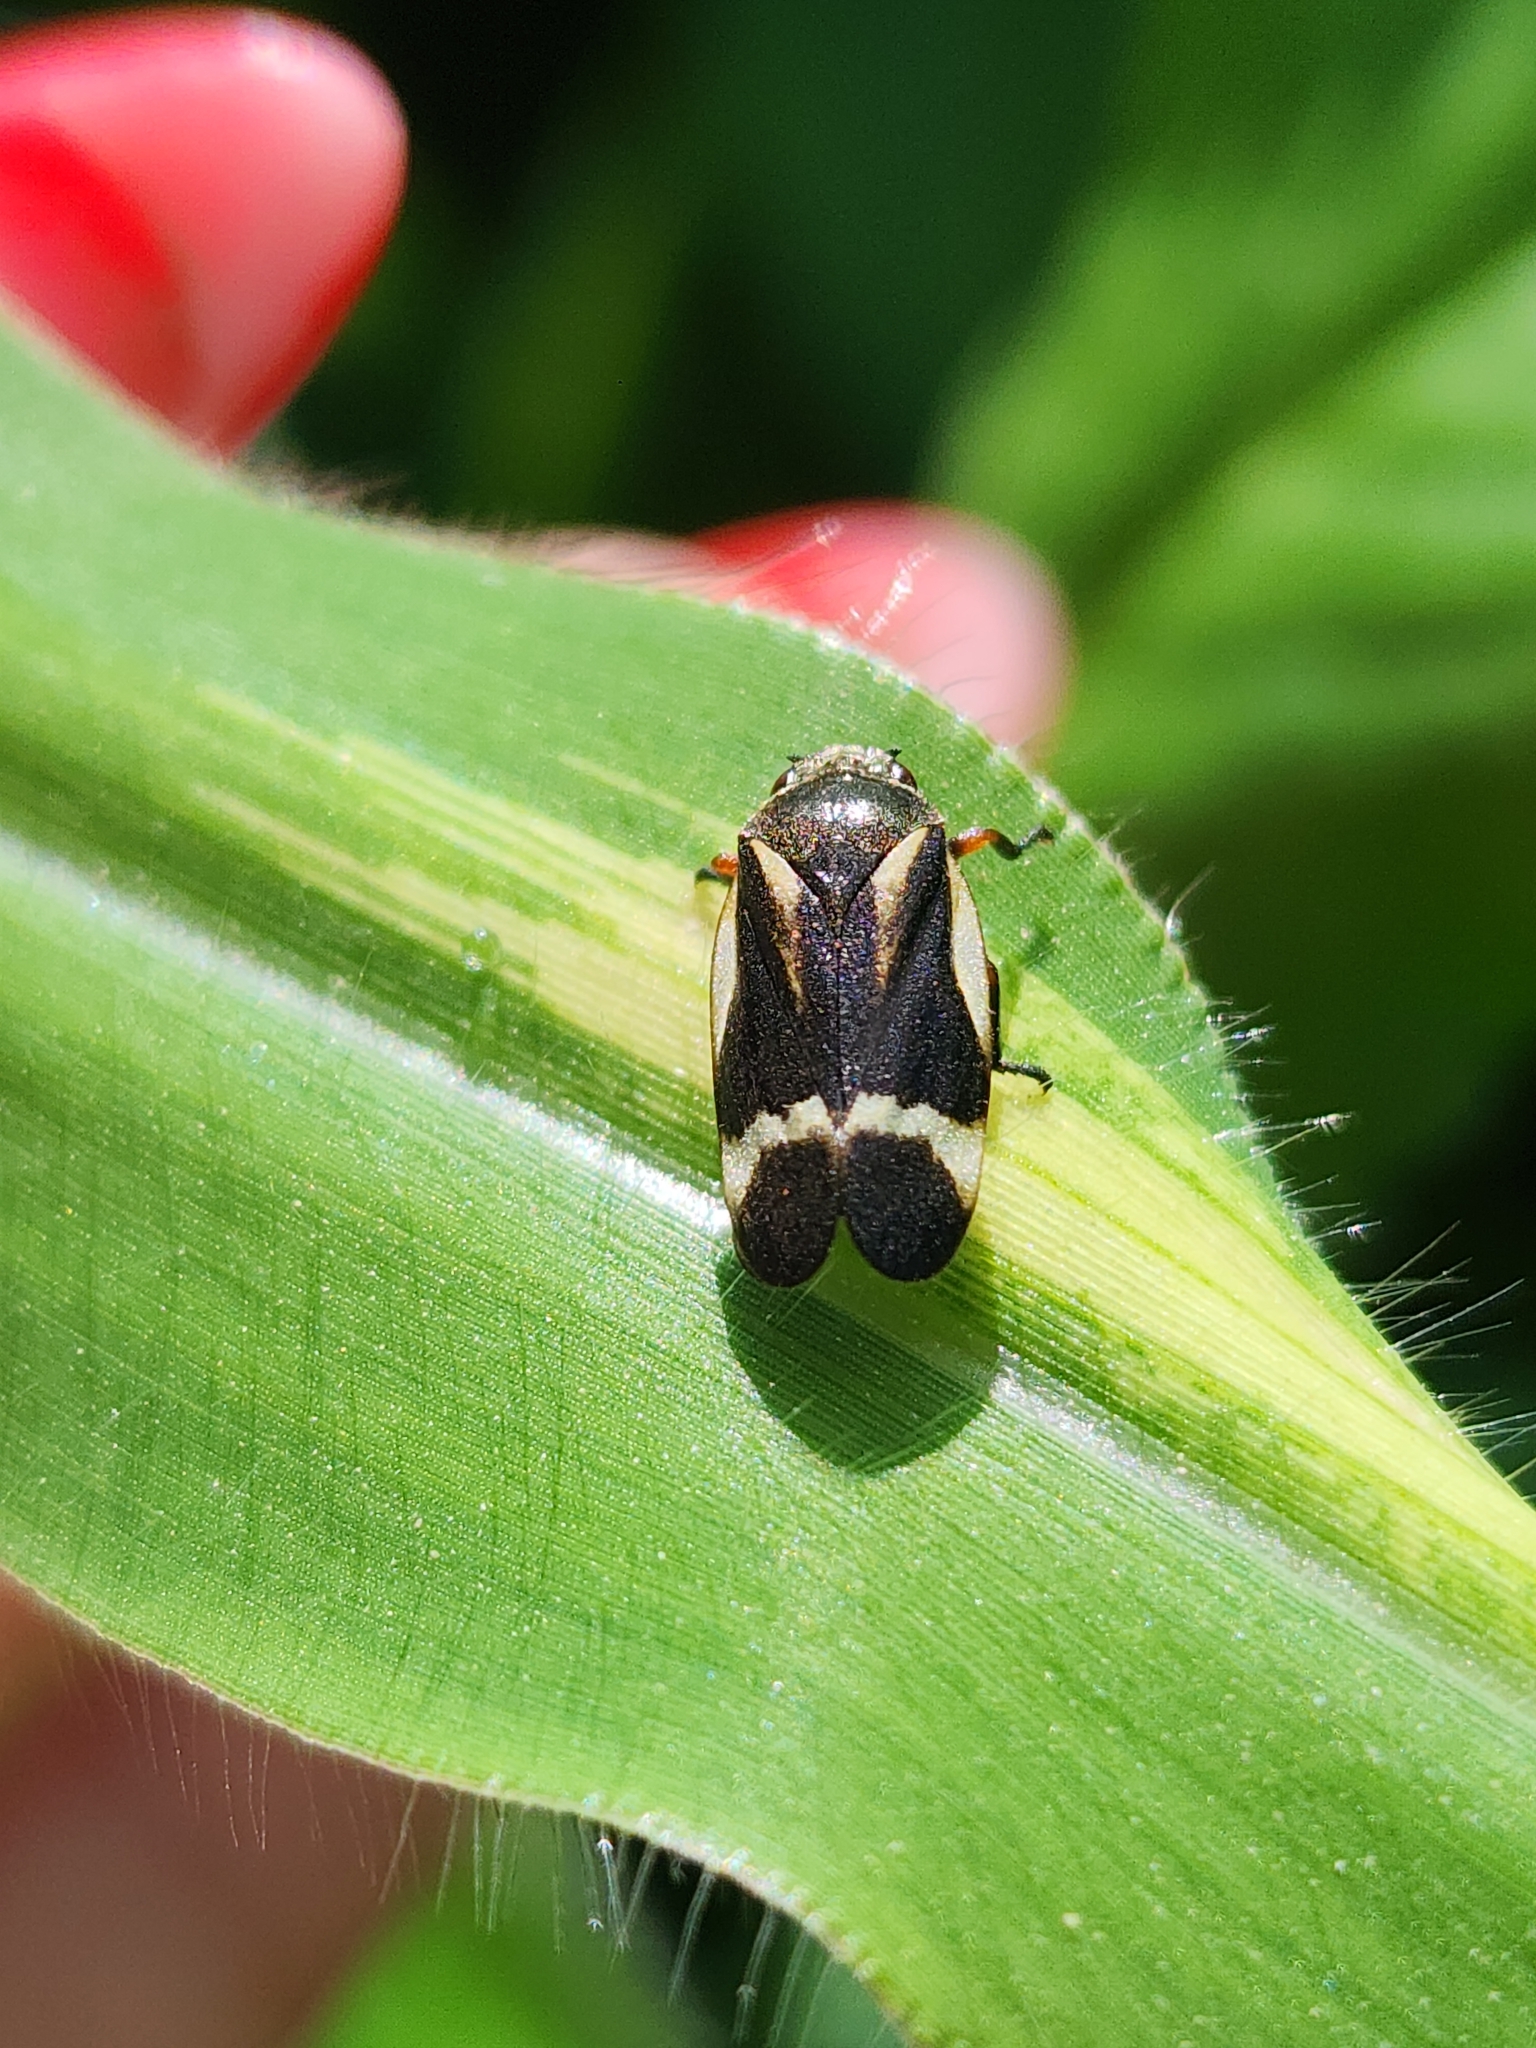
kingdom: Animalia
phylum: Arthropoda
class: Insecta
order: Hemiptera
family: Cercopidae
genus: Notozulia
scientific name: Notozulia entreriana
